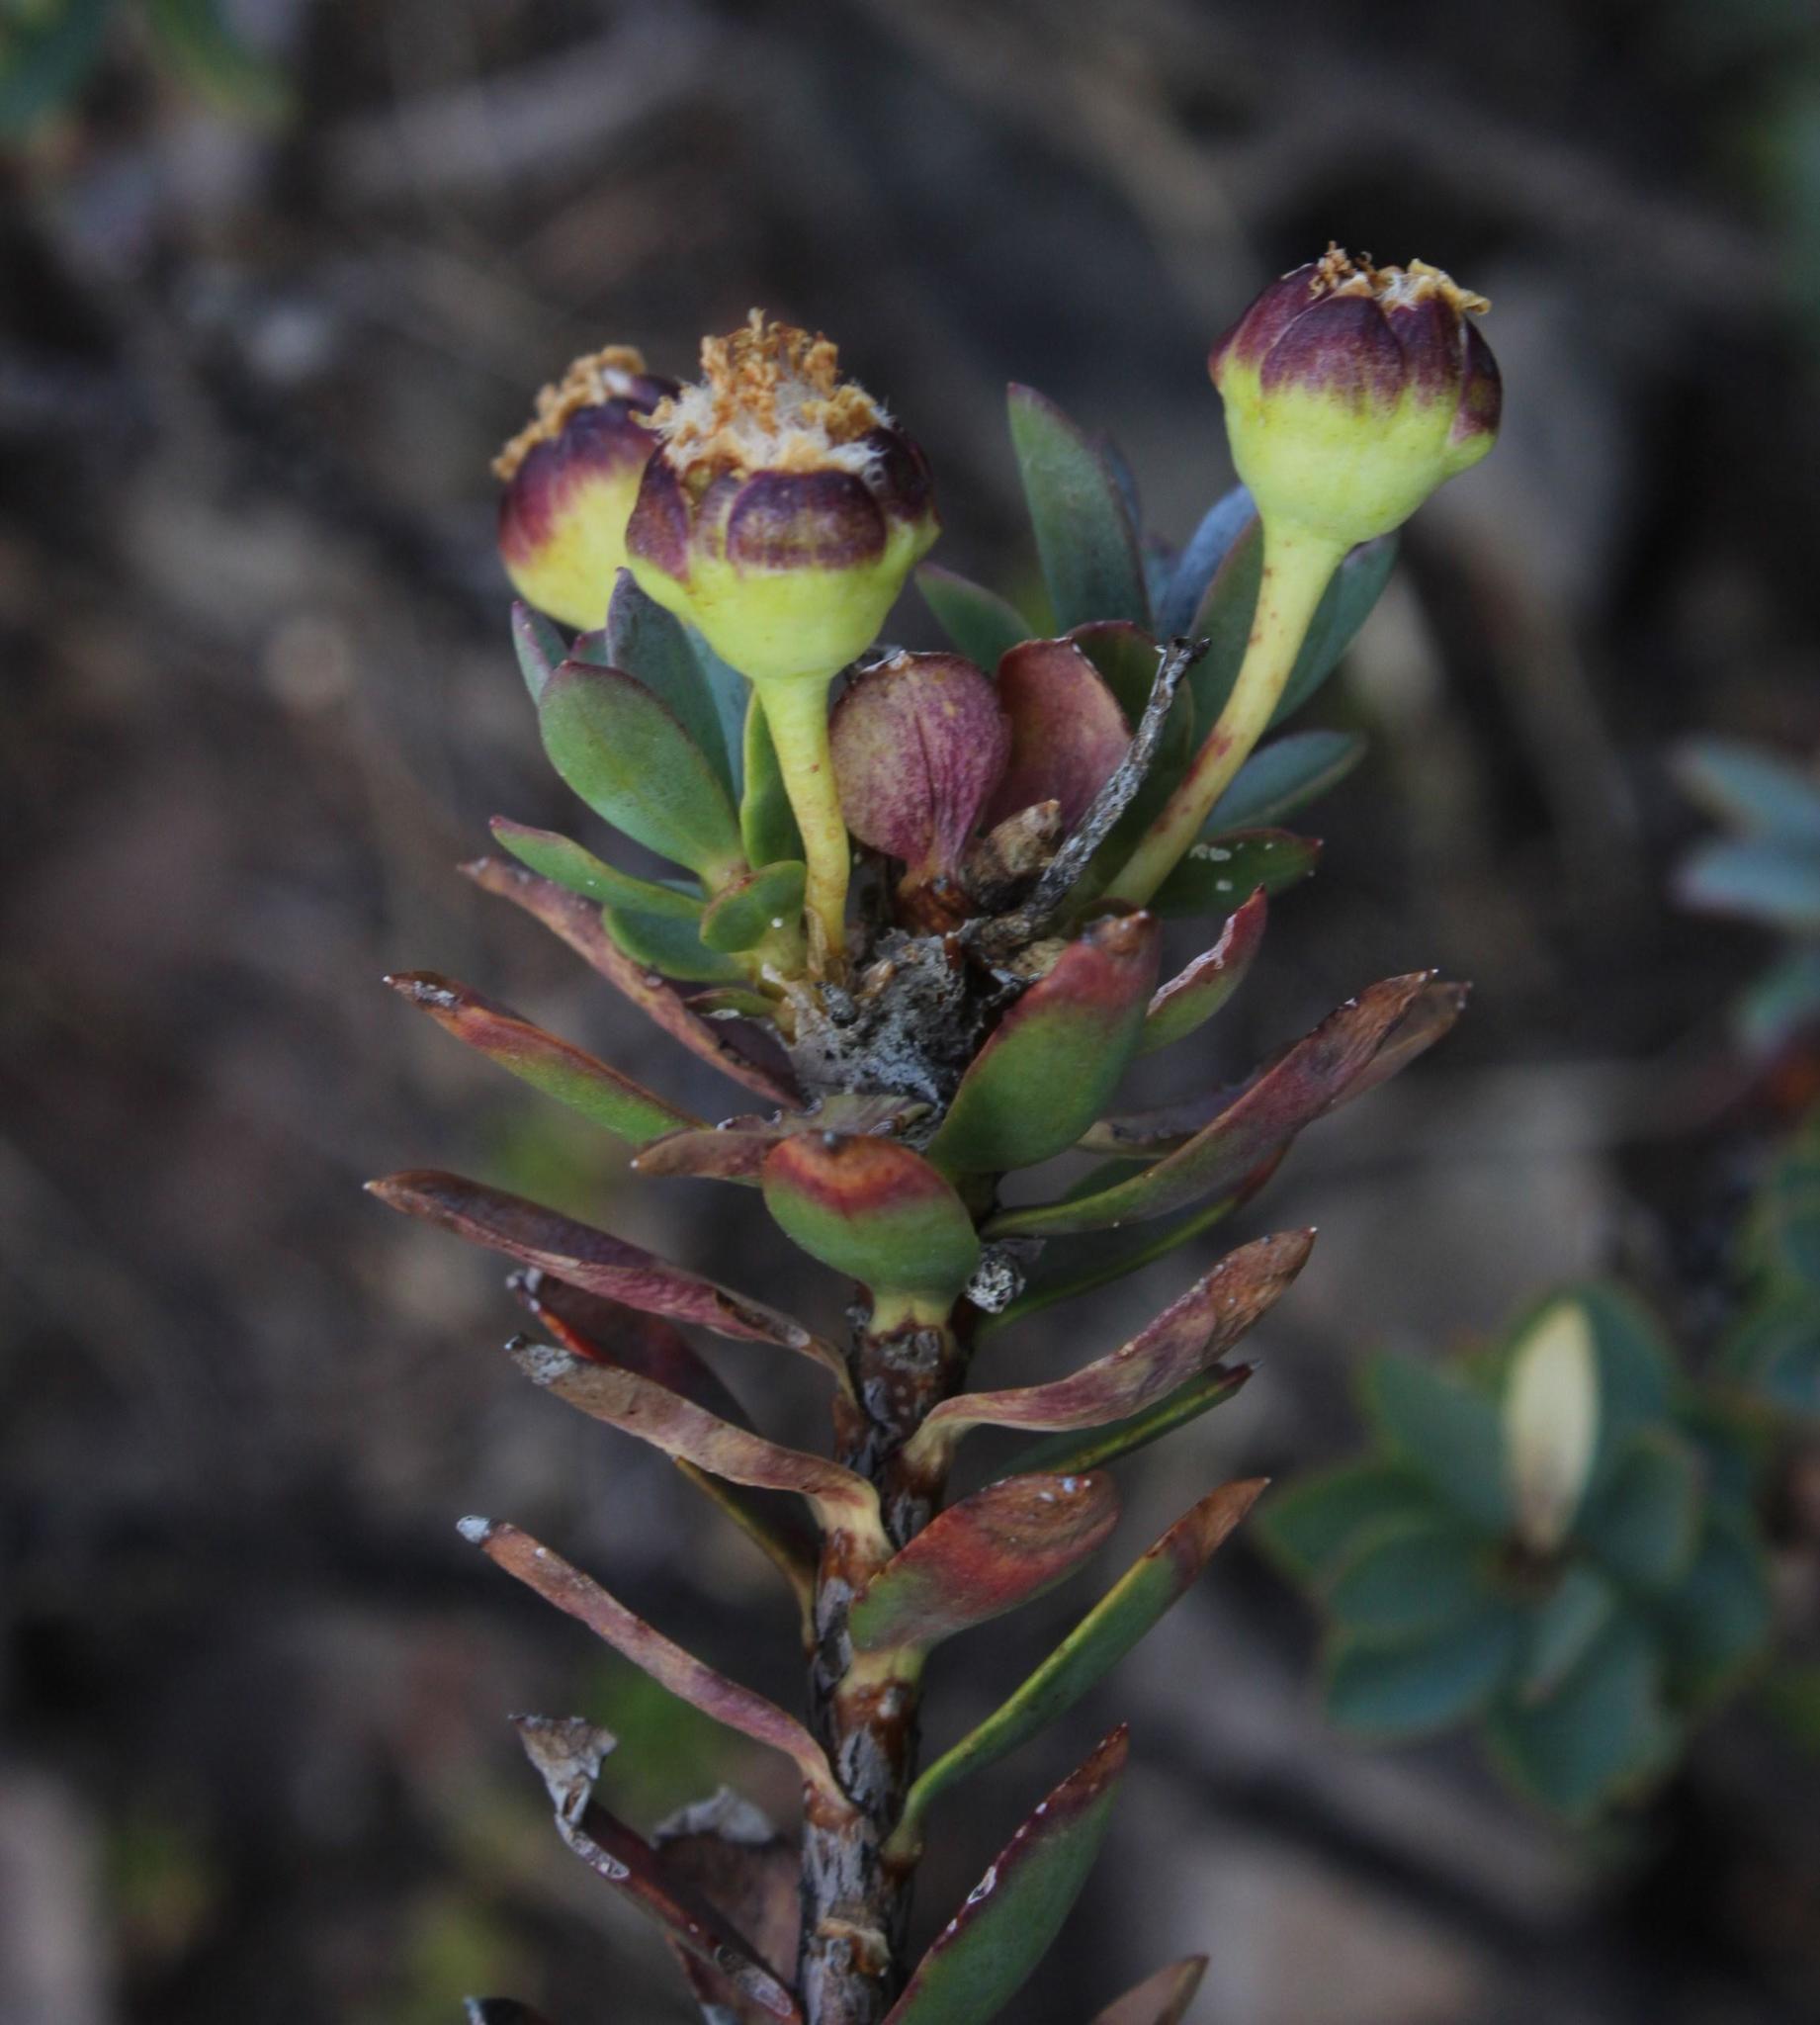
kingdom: Plantae
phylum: Tracheophyta
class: Magnoliopsida
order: Asterales
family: Asteraceae
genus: Euryops
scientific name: Euryops lateriflorus
